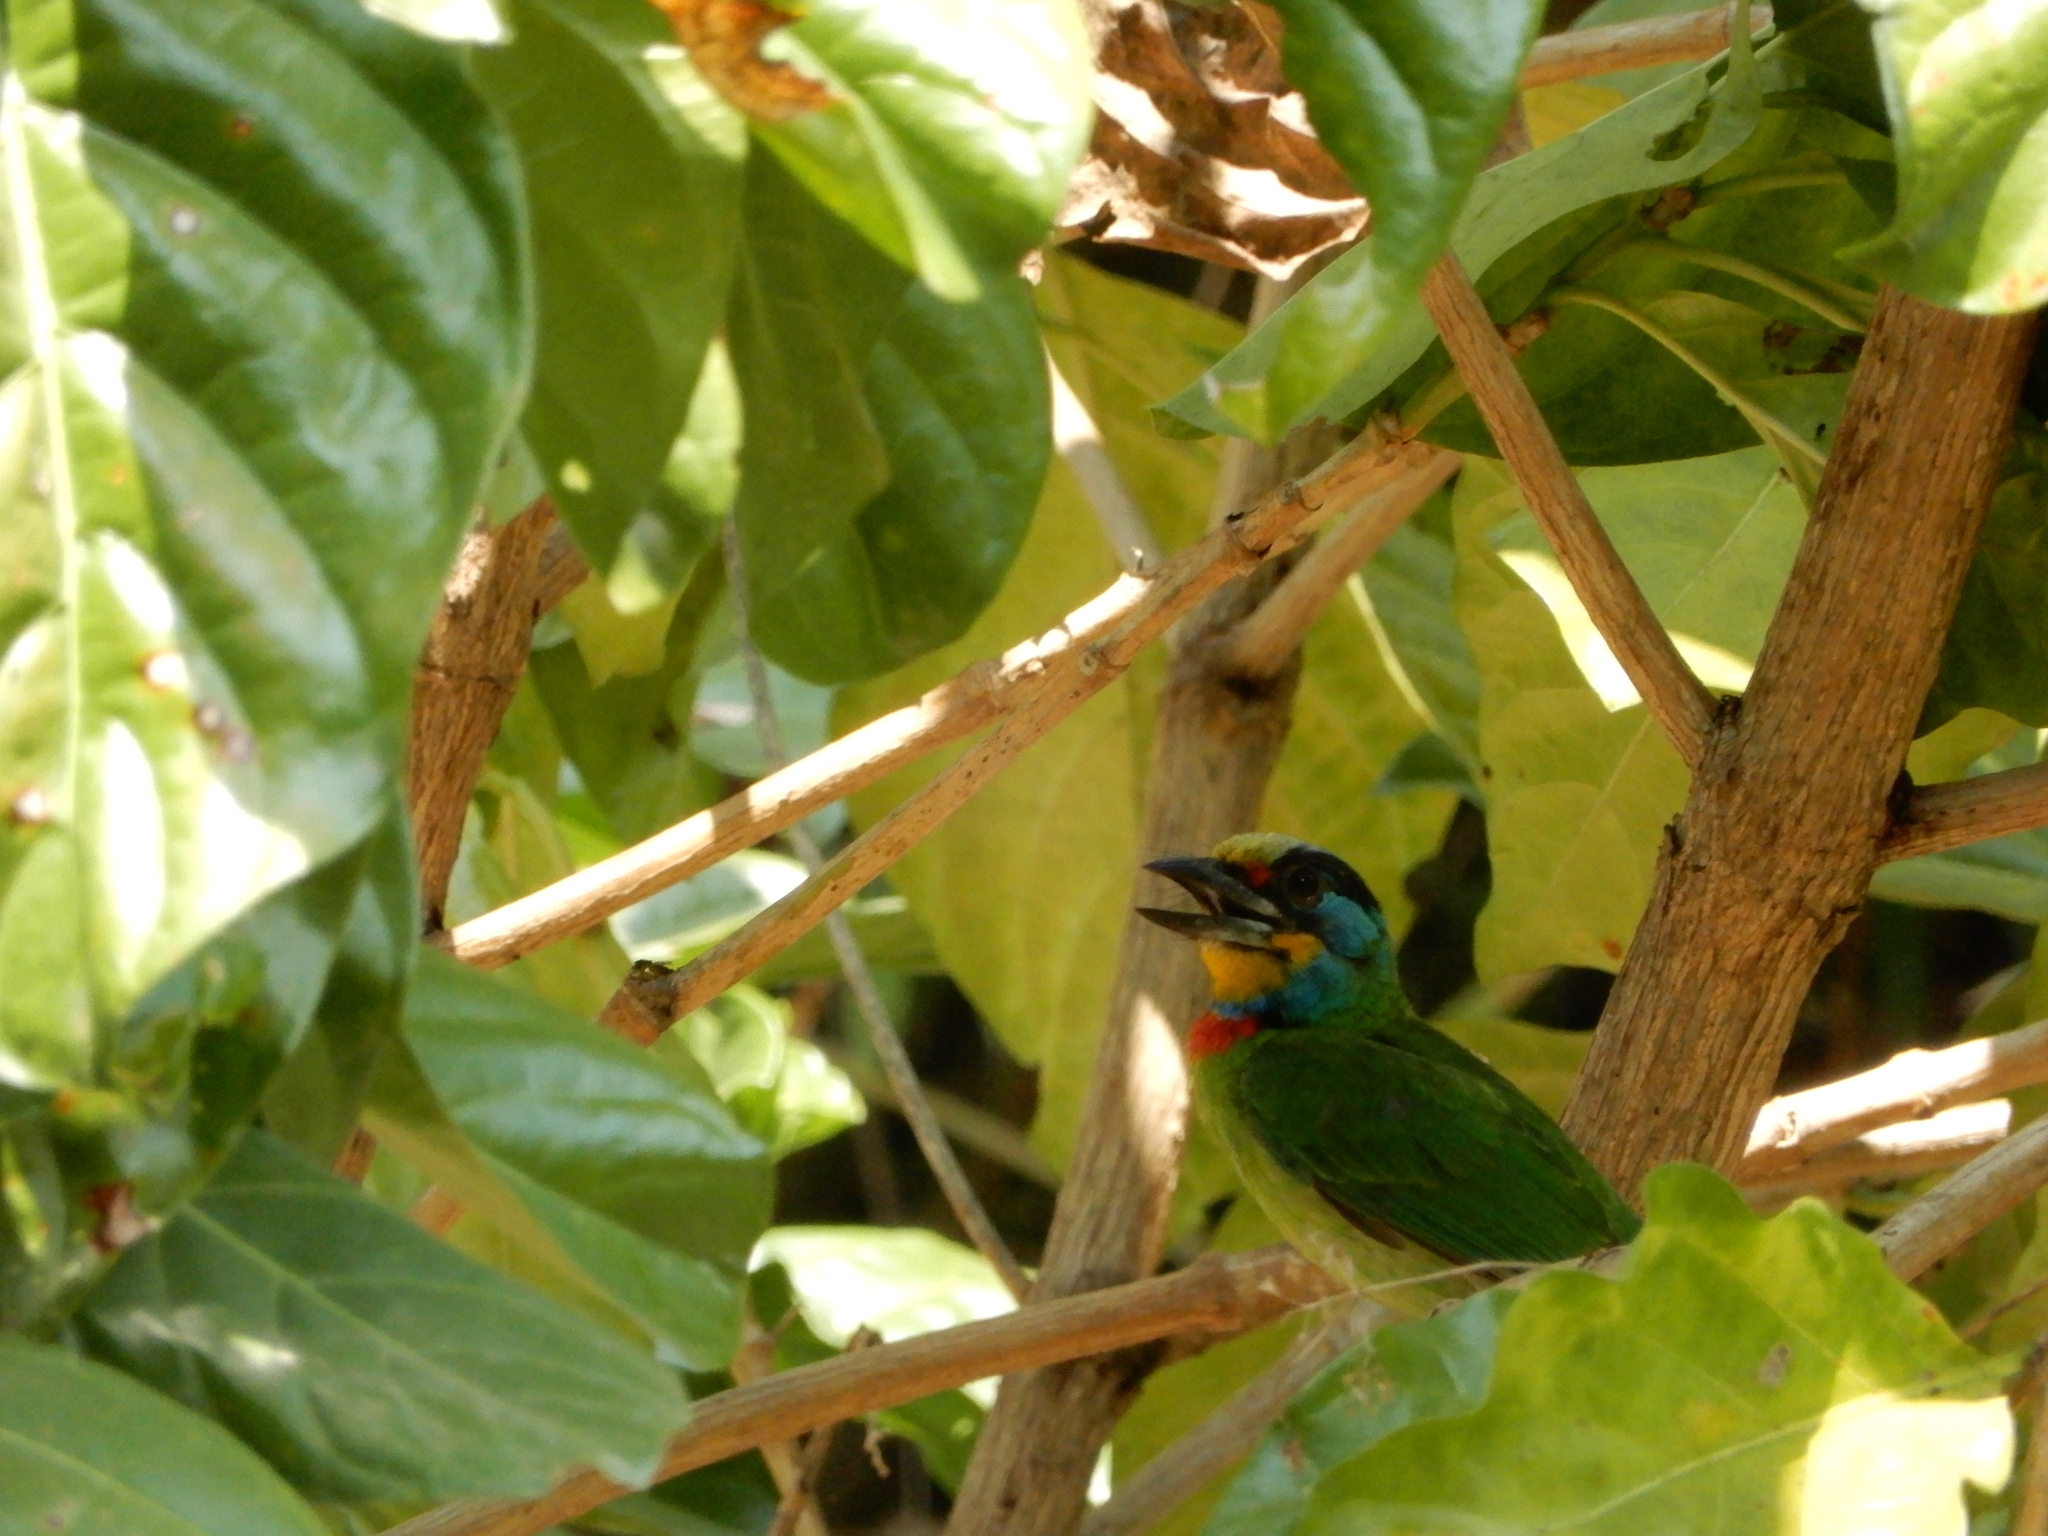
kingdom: Animalia
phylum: Chordata
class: Aves
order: Piciformes
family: Megalaimidae
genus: Psilopogon
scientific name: Psilopogon nuchalis
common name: Taiwan barbet
